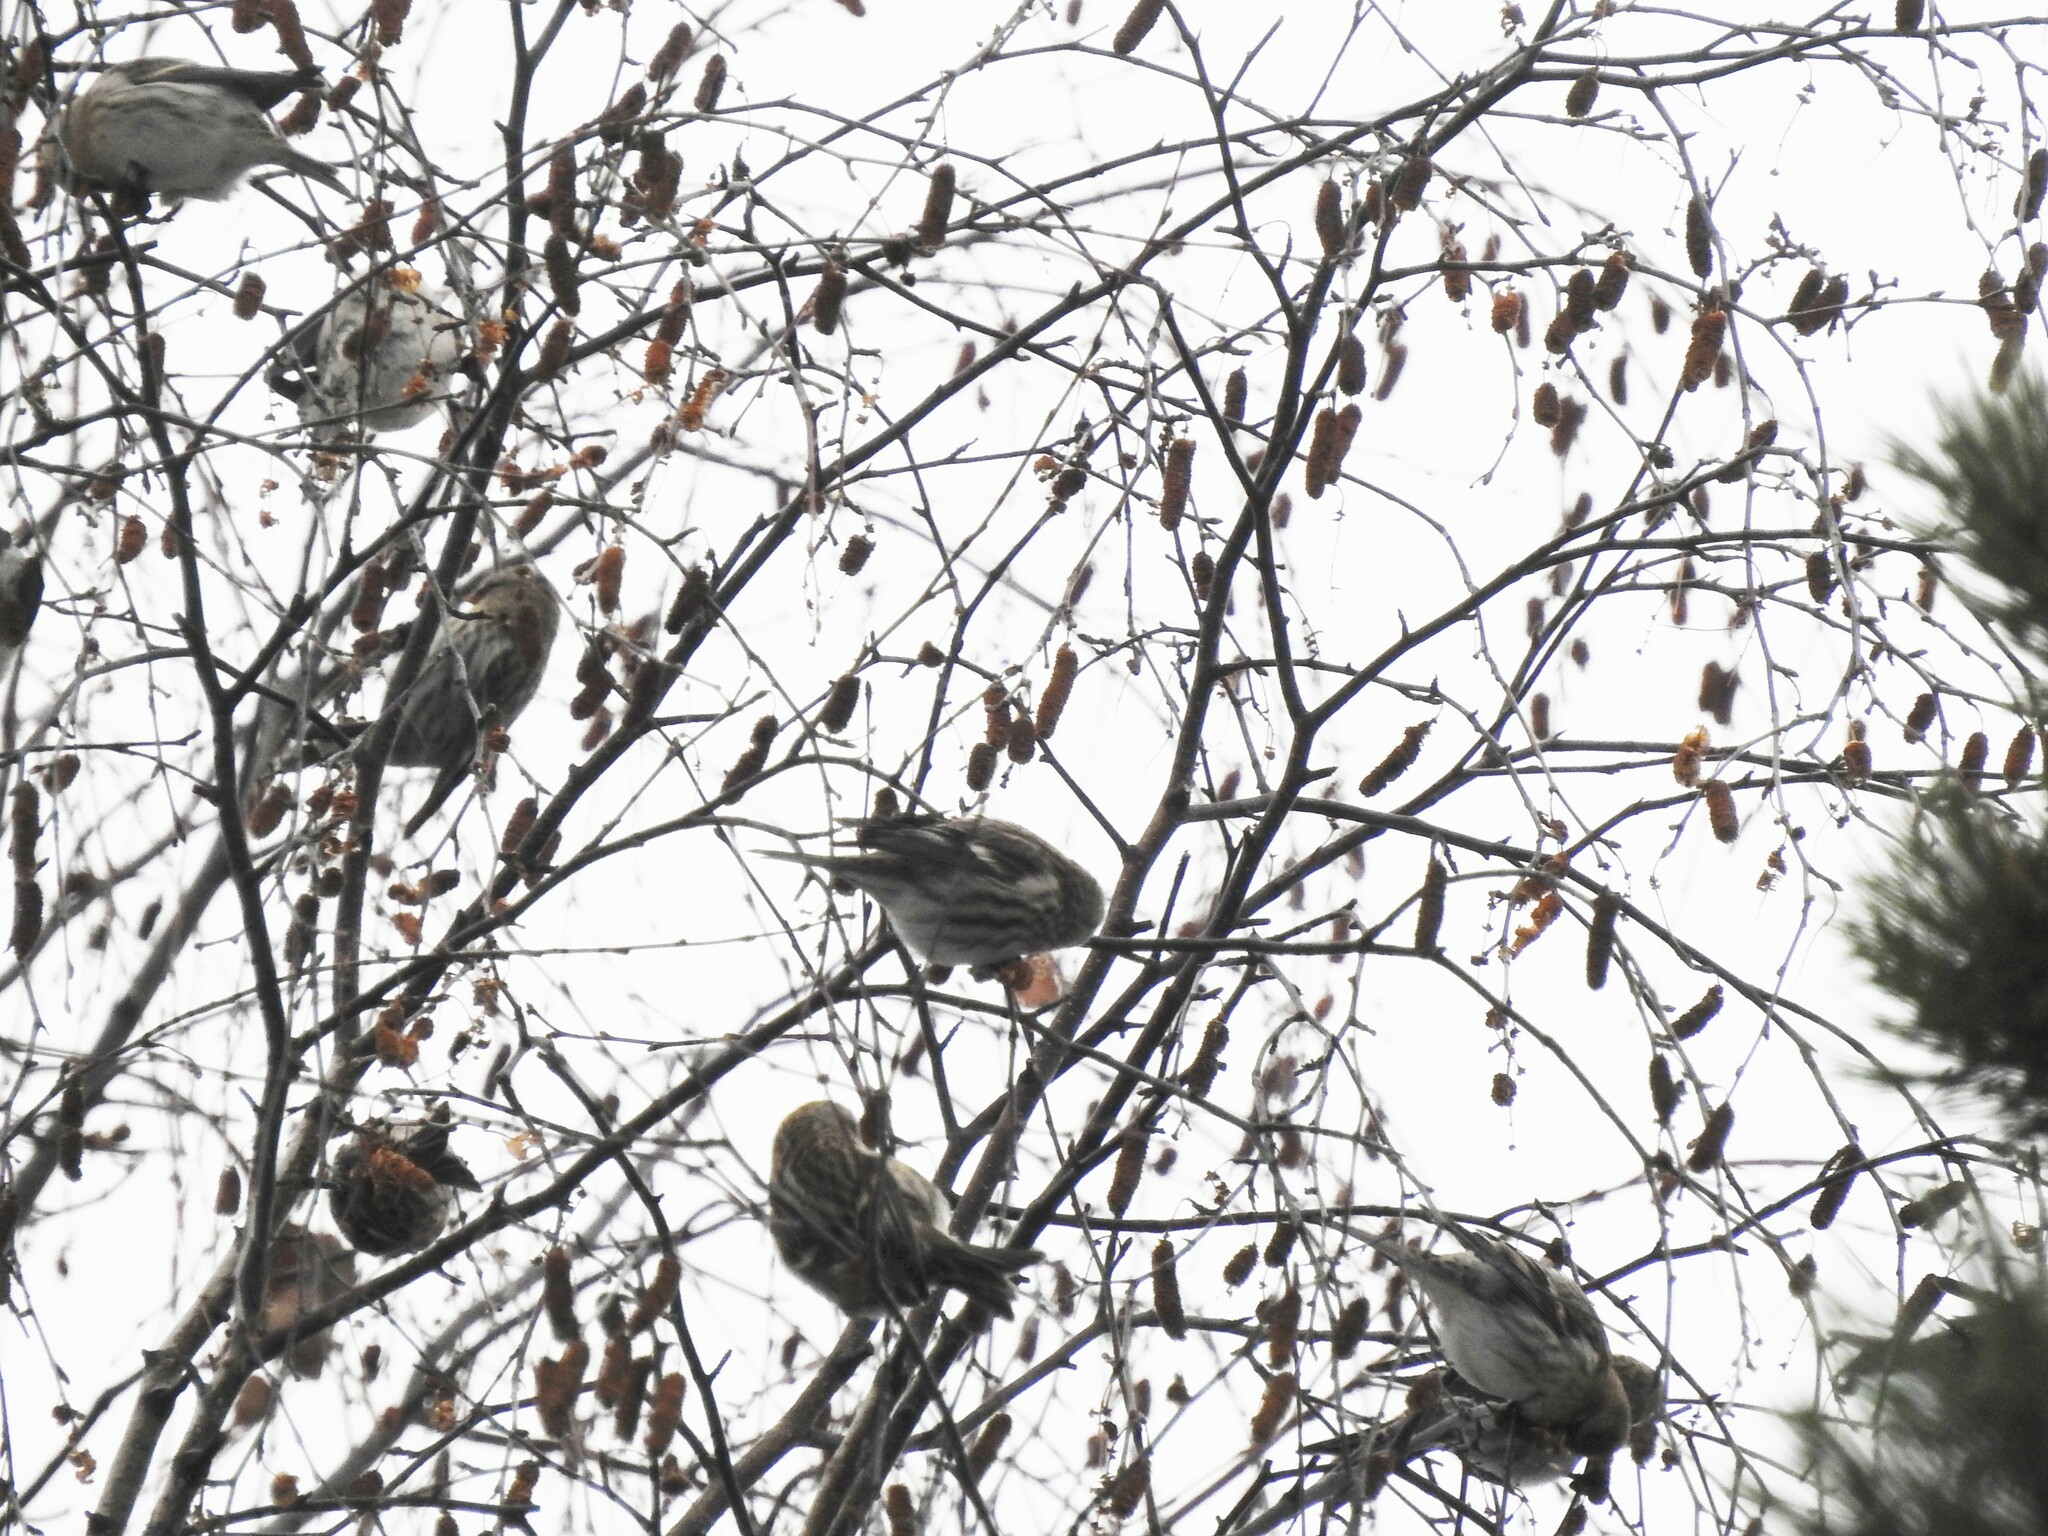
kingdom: Animalia
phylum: Chordata
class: Aves
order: Passeriformes
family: Fringillidae
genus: Acanthis
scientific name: Acanthis flammea
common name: Common redpoll
